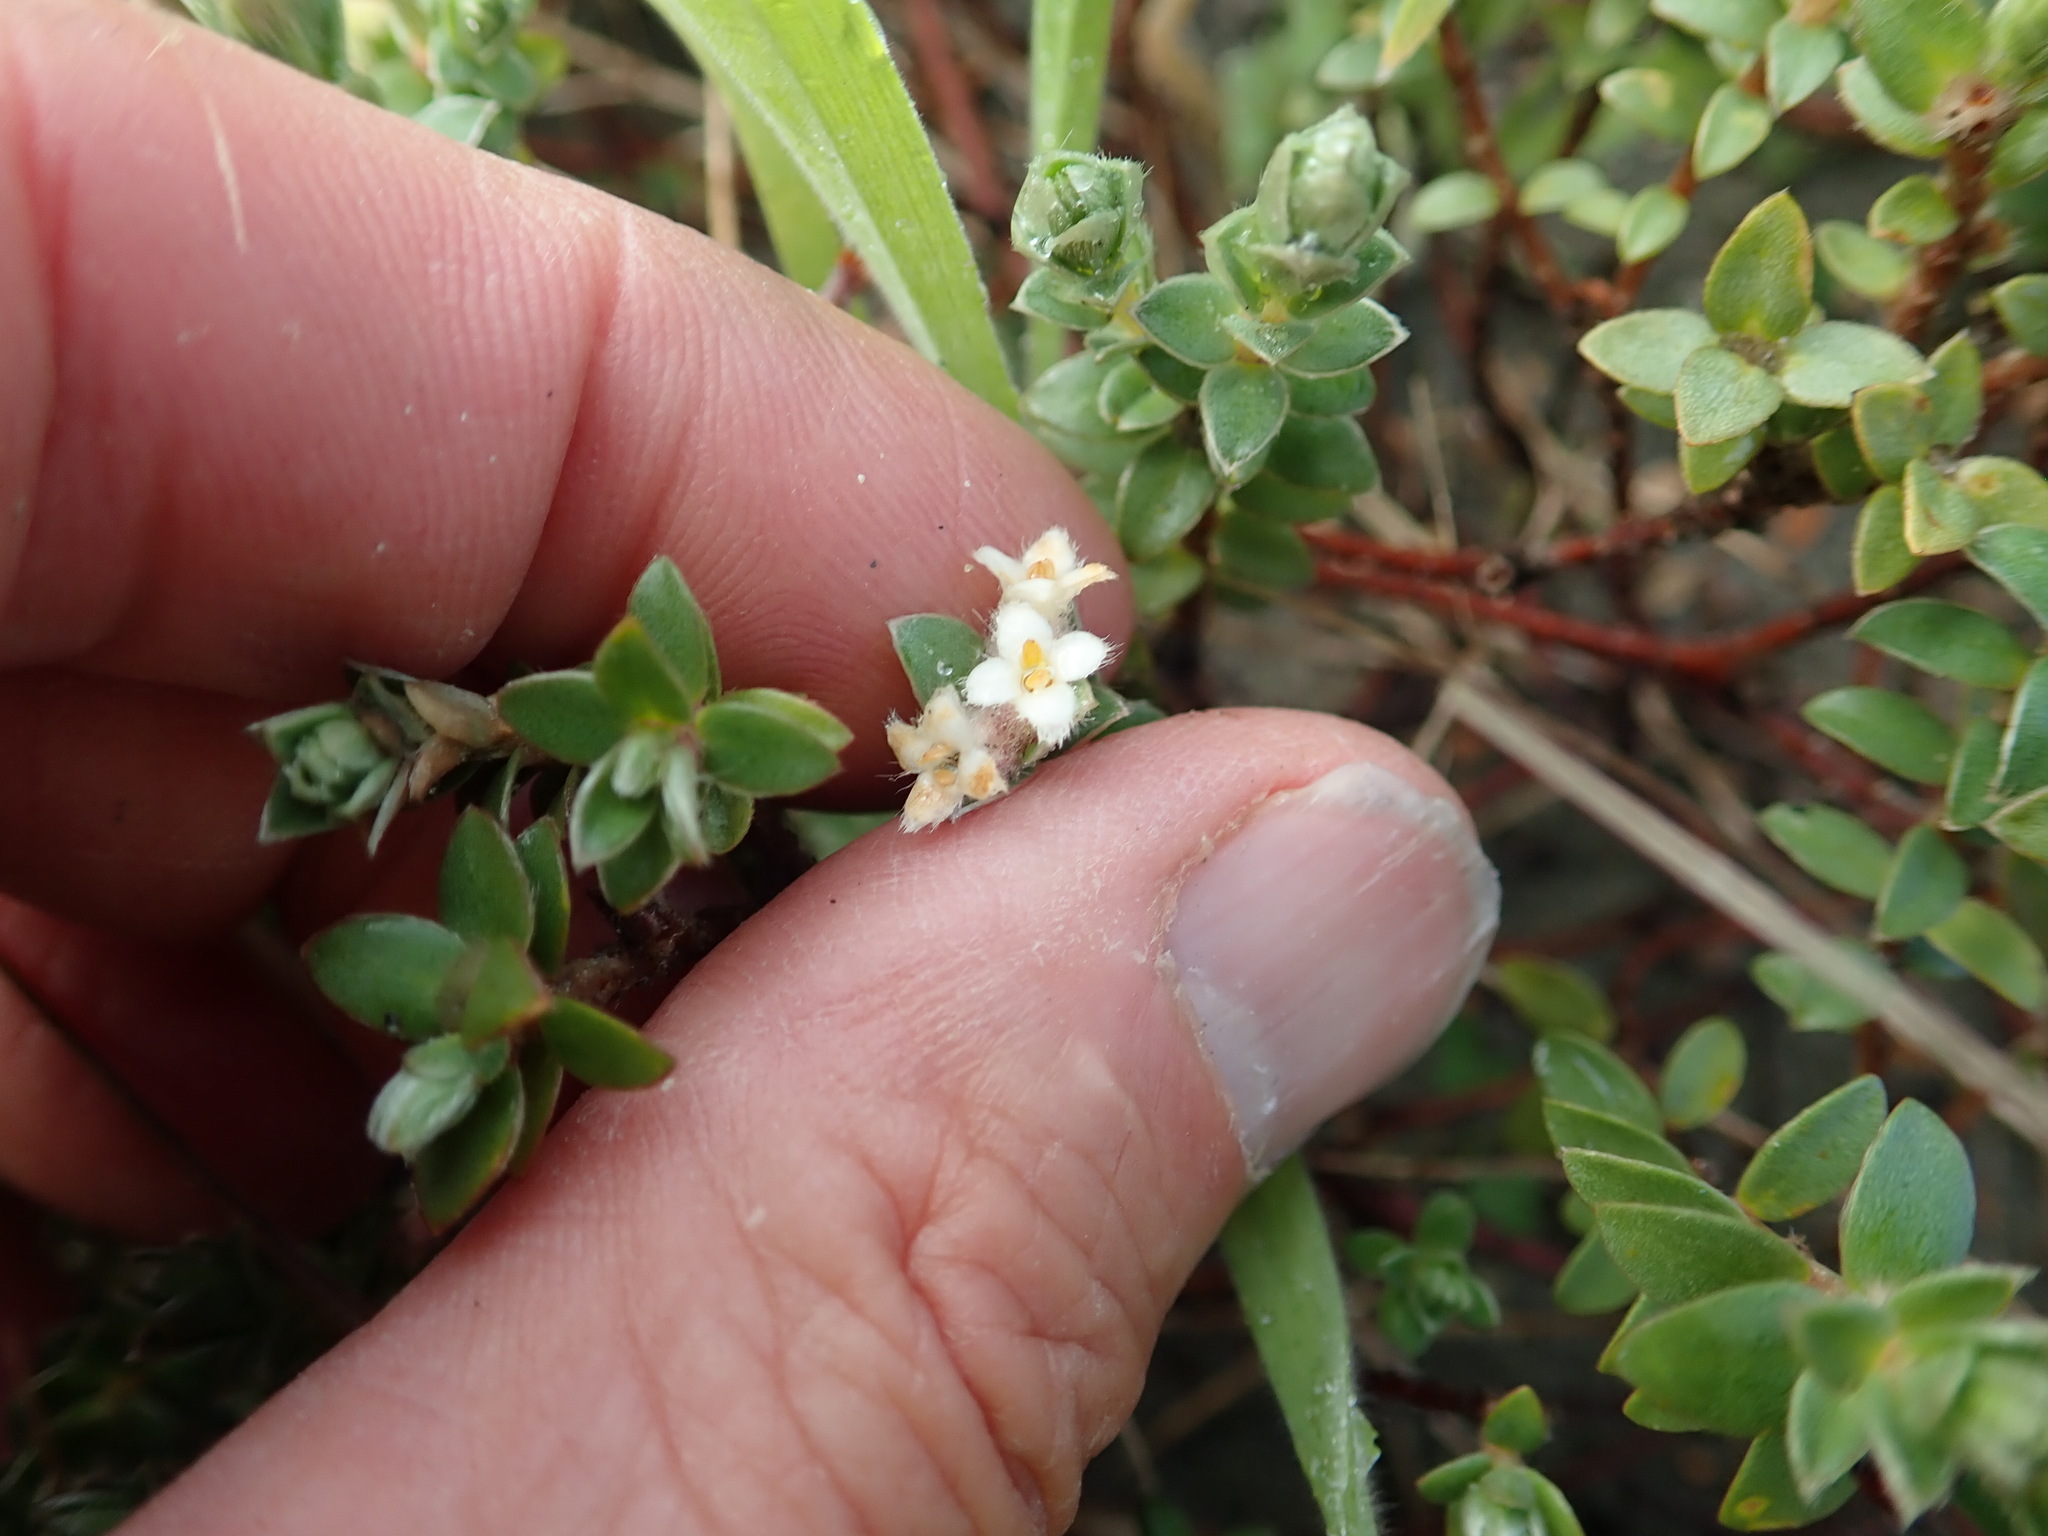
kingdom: Plantae
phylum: Tracheophyta
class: Magnoliopsida
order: Malvales
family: Thymelaeaceae
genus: Pimelea
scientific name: Pimelea villosa
